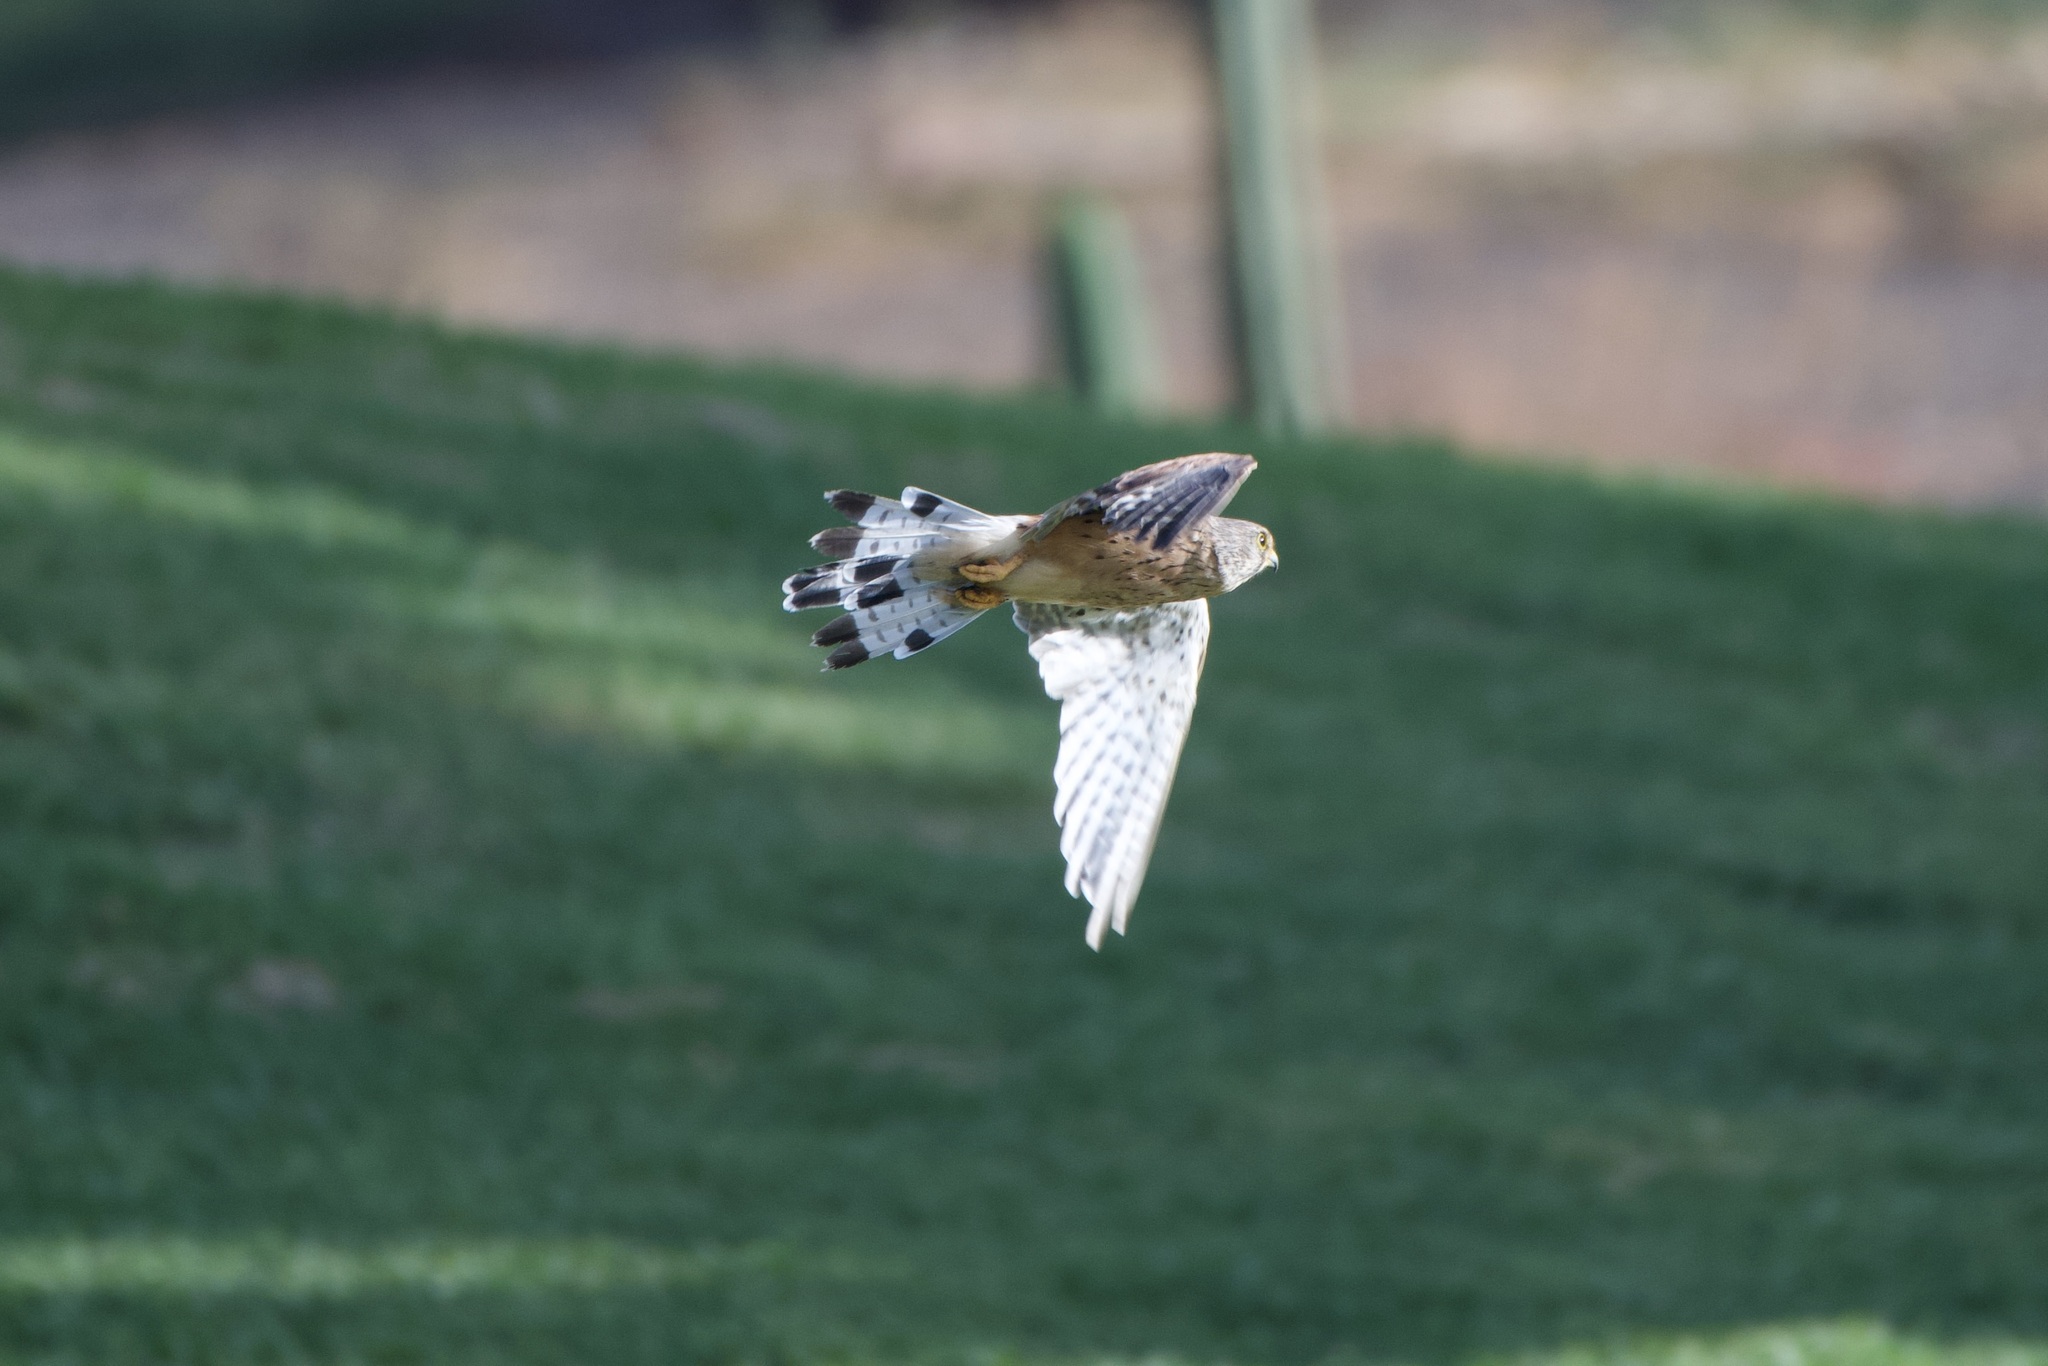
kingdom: Animalia
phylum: Chordata
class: Aves
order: Falconiformes
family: Falconidae
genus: Falco
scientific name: Falco tinnunculus
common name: Common kestrel
